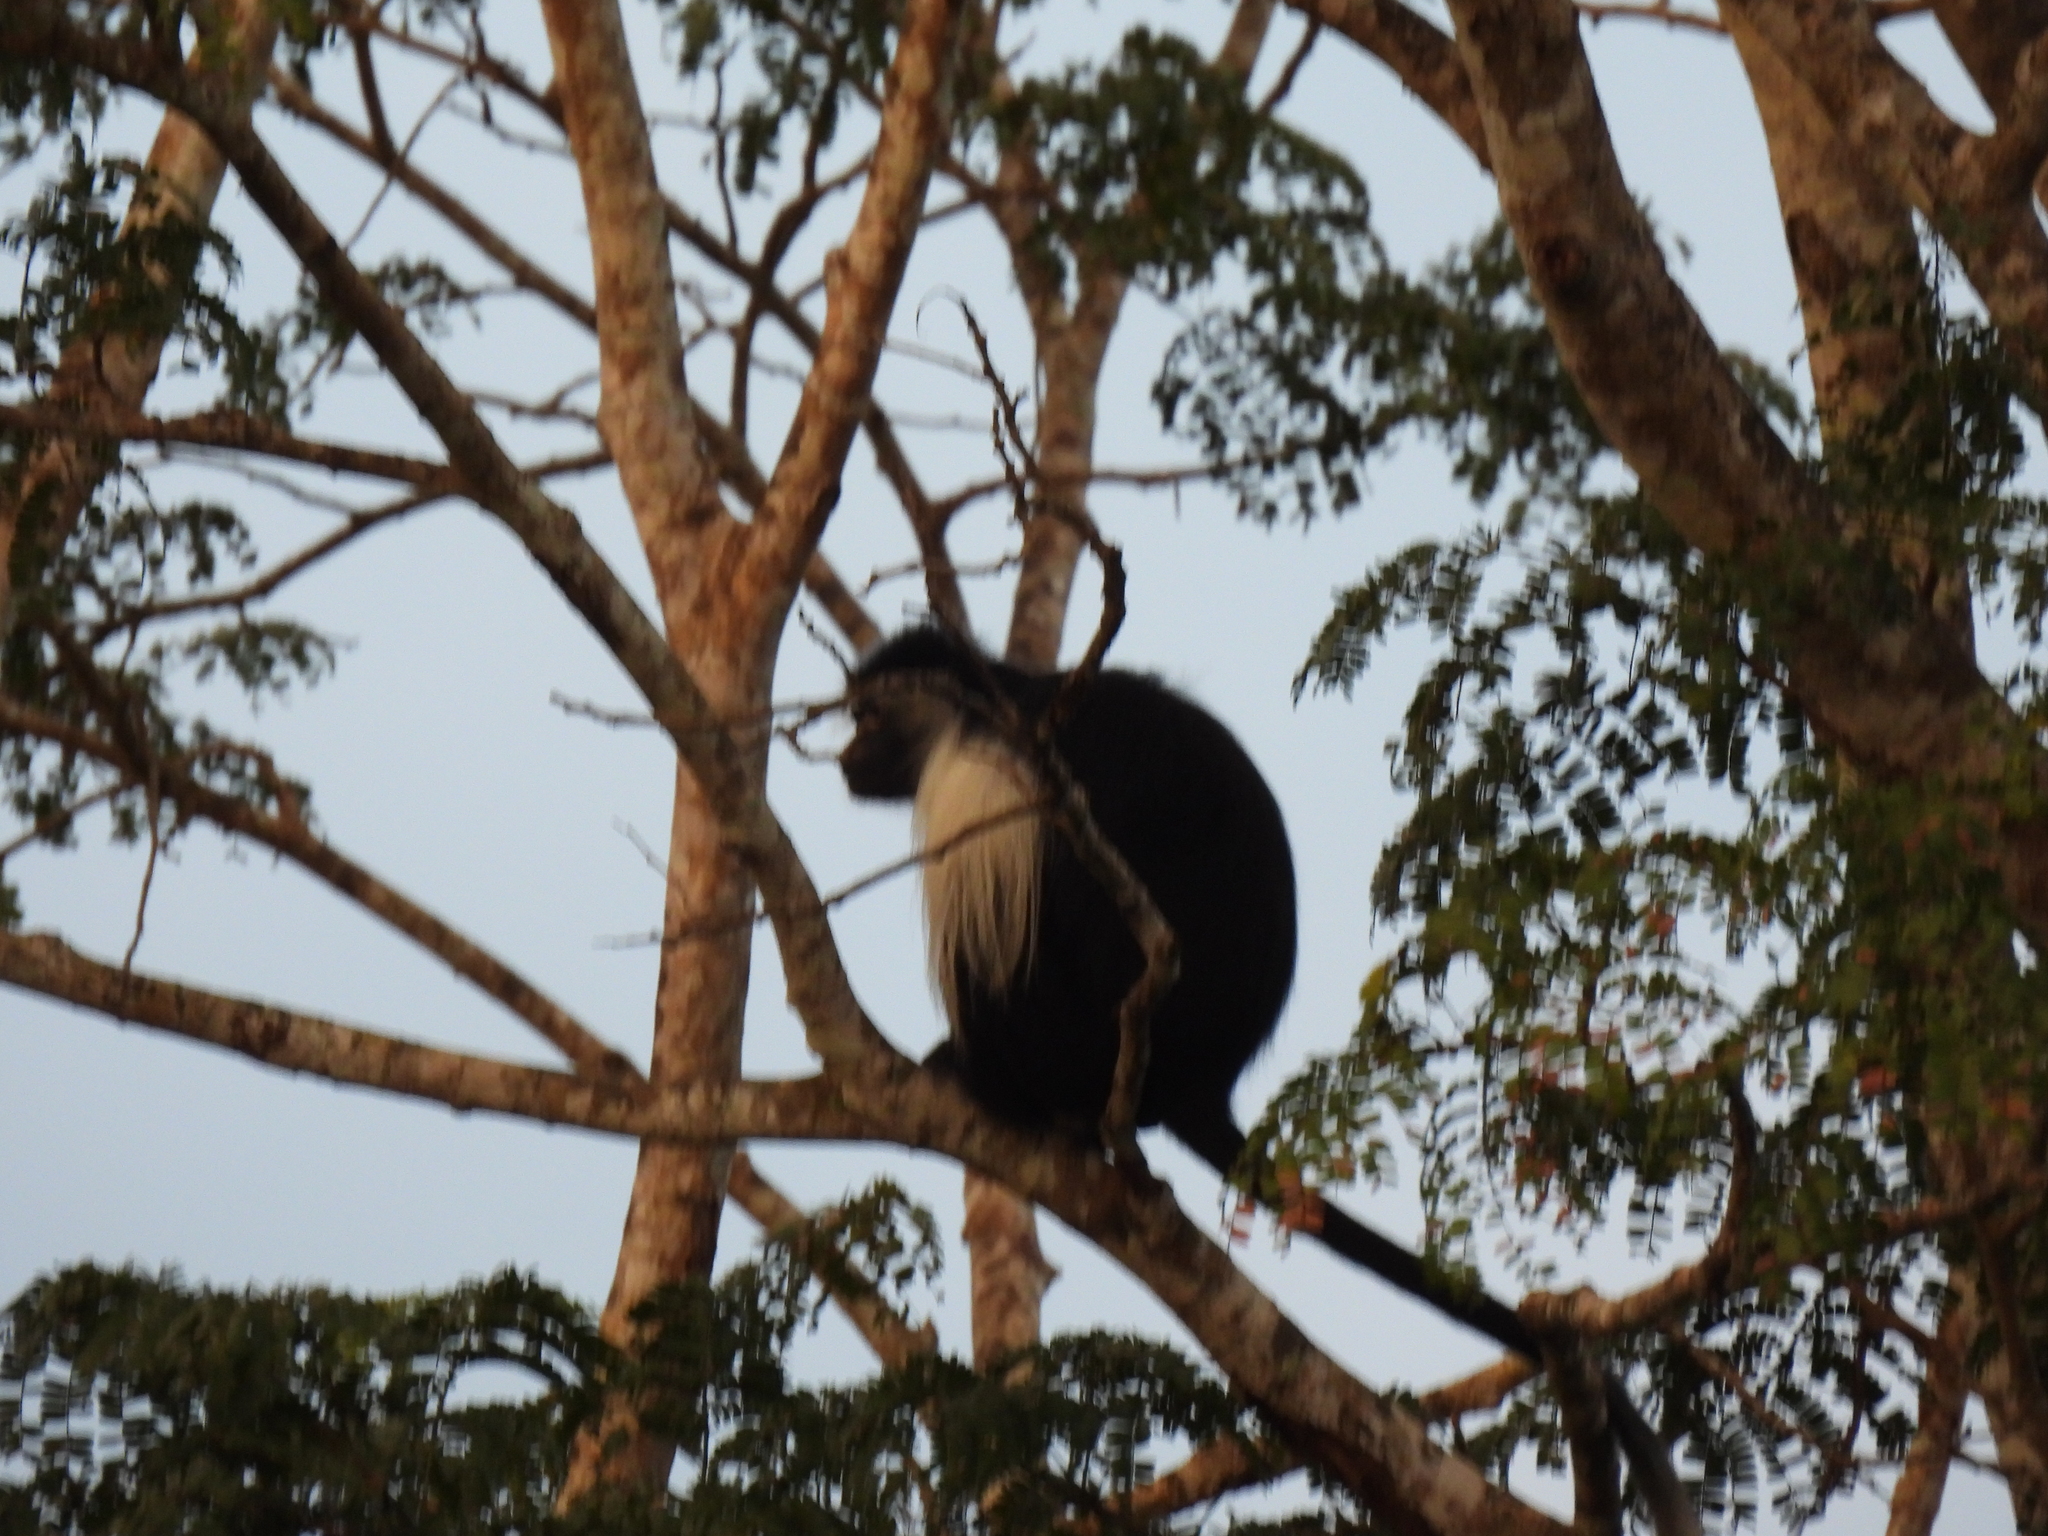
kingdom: Animalia
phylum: Chordata
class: Mammalia
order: Primates
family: Cercopithecidae
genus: Colobus
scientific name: Colobus angolensis
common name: Angola colobus
